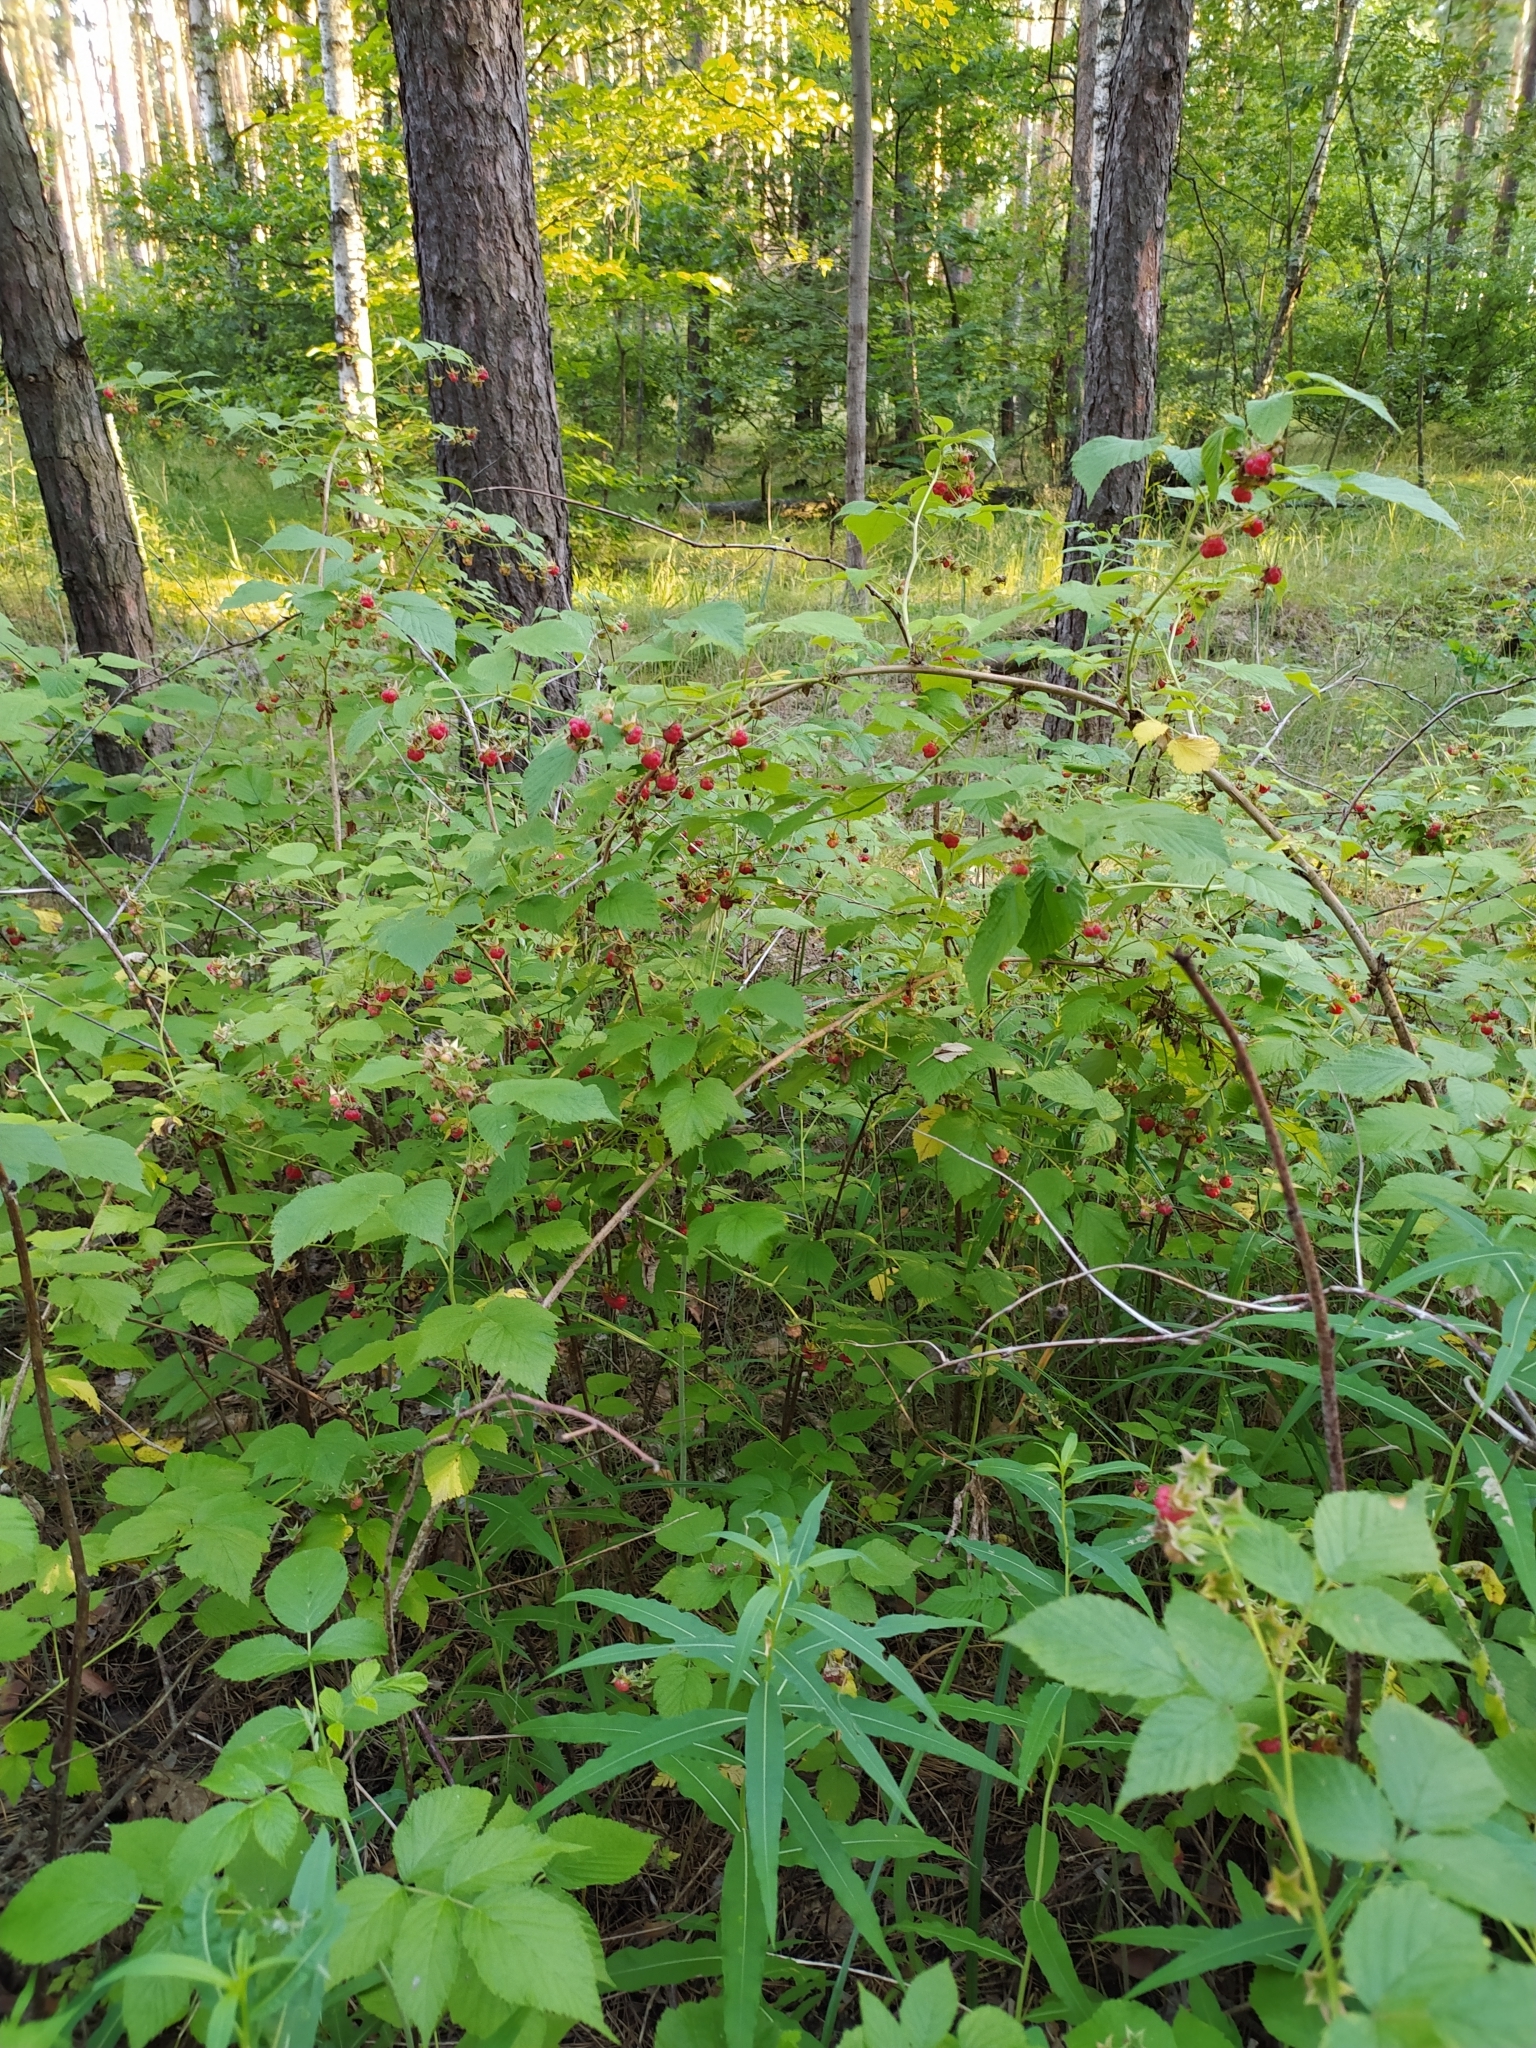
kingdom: Plantae
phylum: Tracheophyta
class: Magnoliopsida
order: Rosales
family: Rosaceae
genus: Rubus
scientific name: Rubus idaeus
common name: Raspberry
